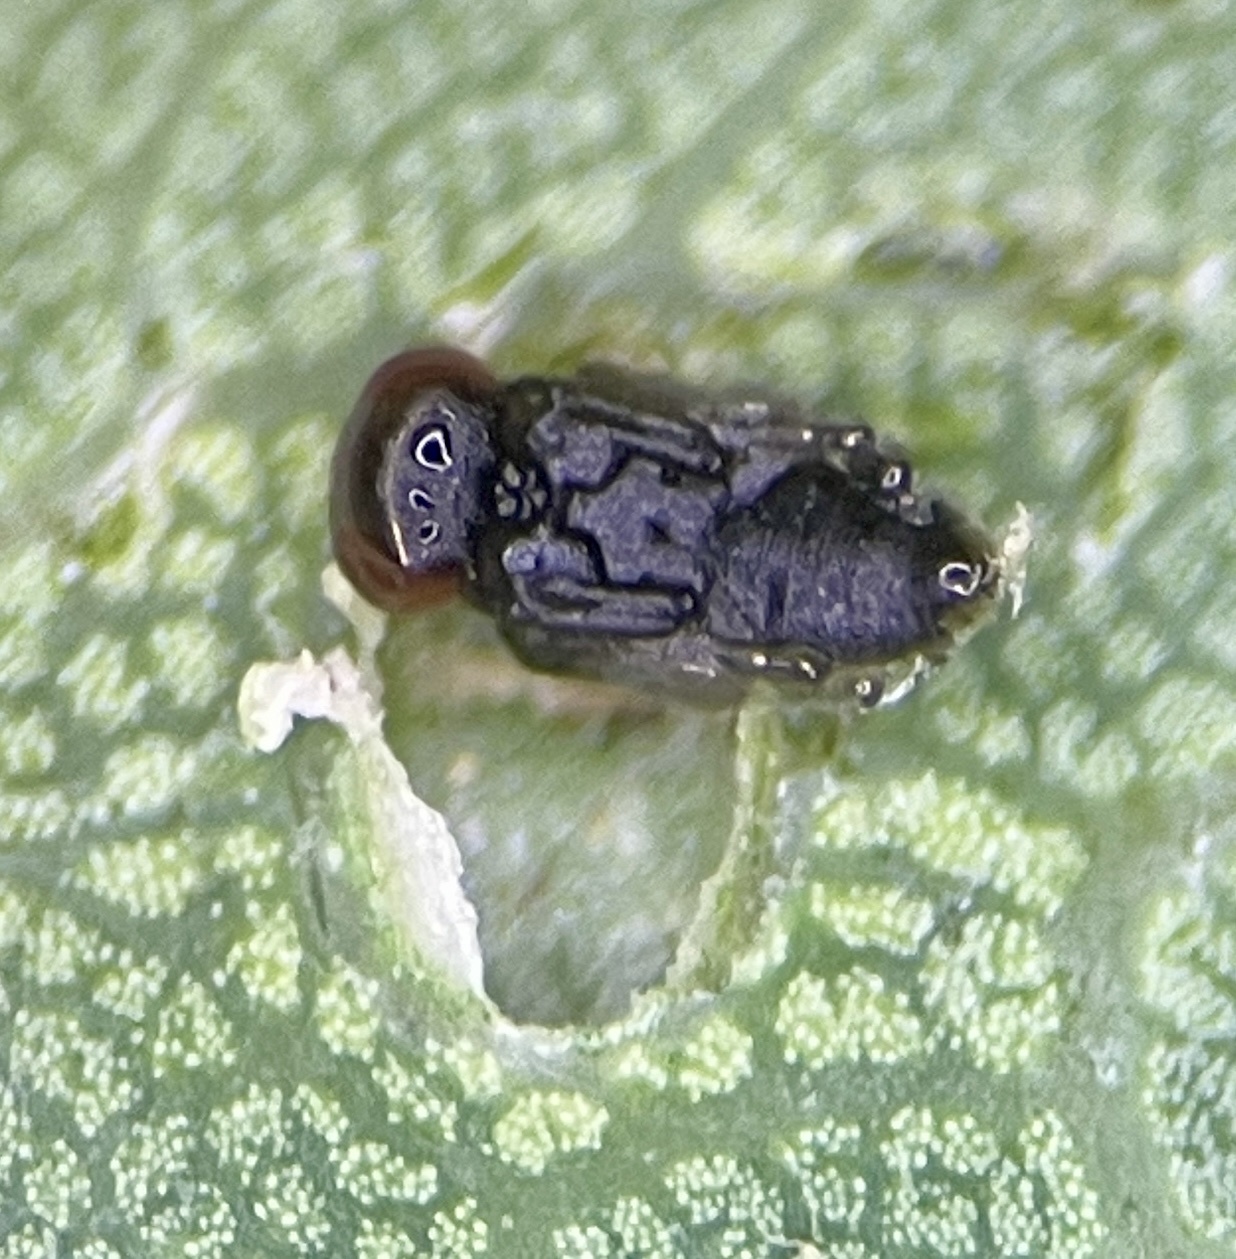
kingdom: Animalia
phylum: Arthropoda
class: Insecta
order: Hymenoptera
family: Cynipidae
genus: Neuroterus
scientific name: Neuroterus quercusverrucarum
